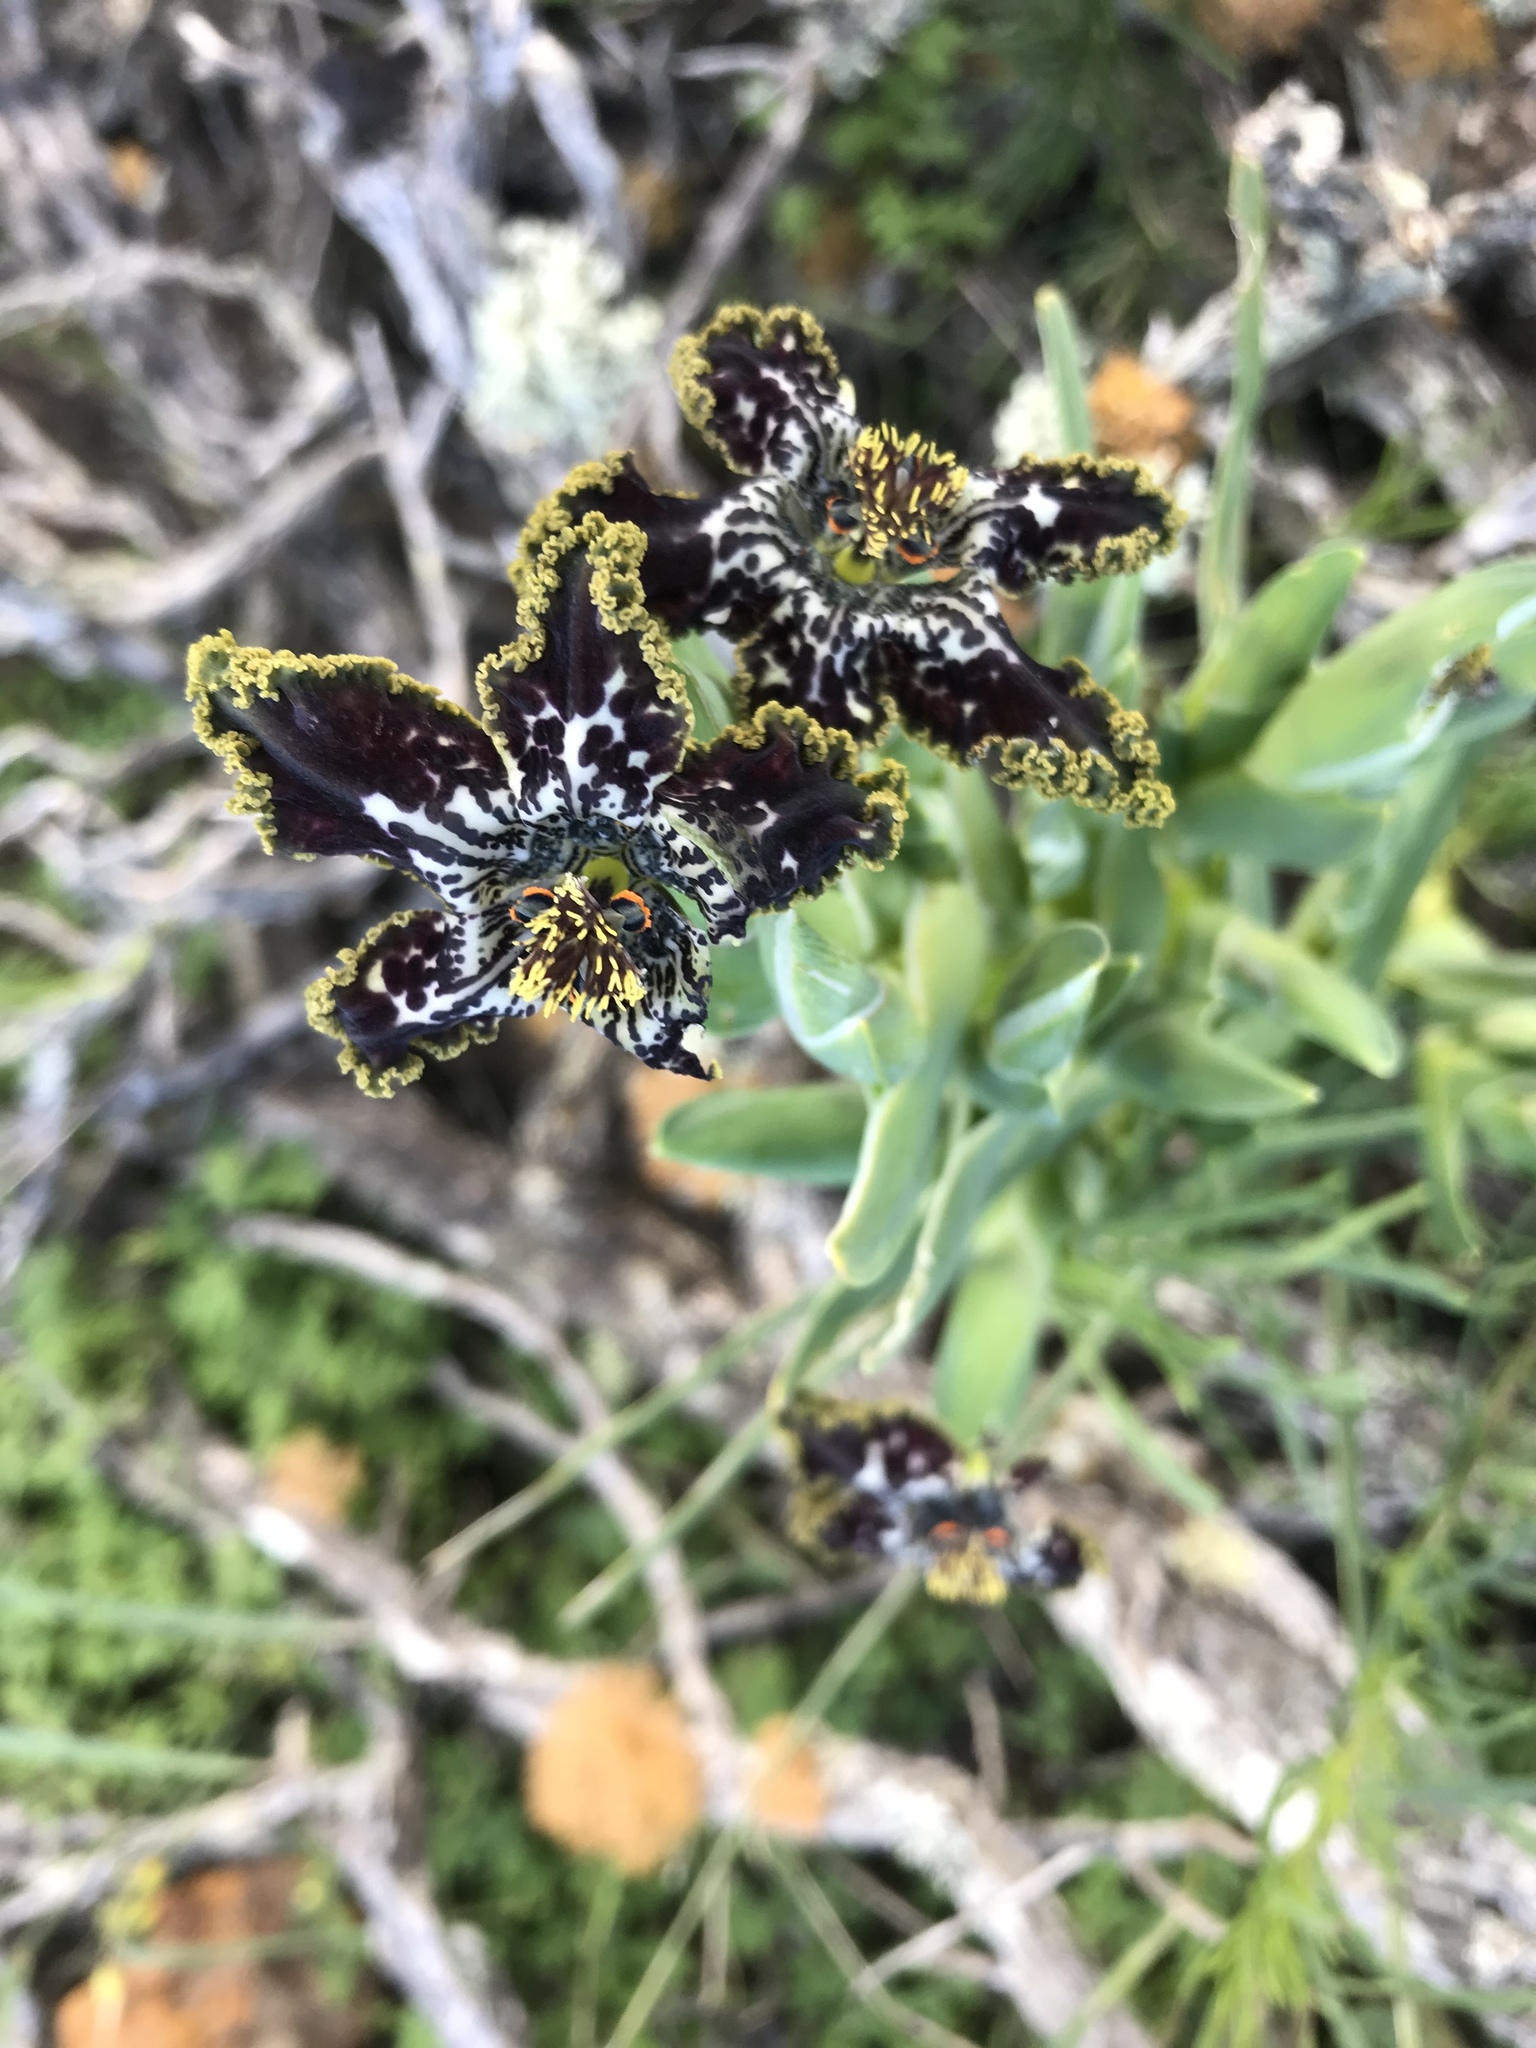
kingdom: Plantae
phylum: Tracheophyta
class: Liliopsida
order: Asparagales
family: Iridaceae
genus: Ferraria
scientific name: Ferraria crispa
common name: Black-flag
